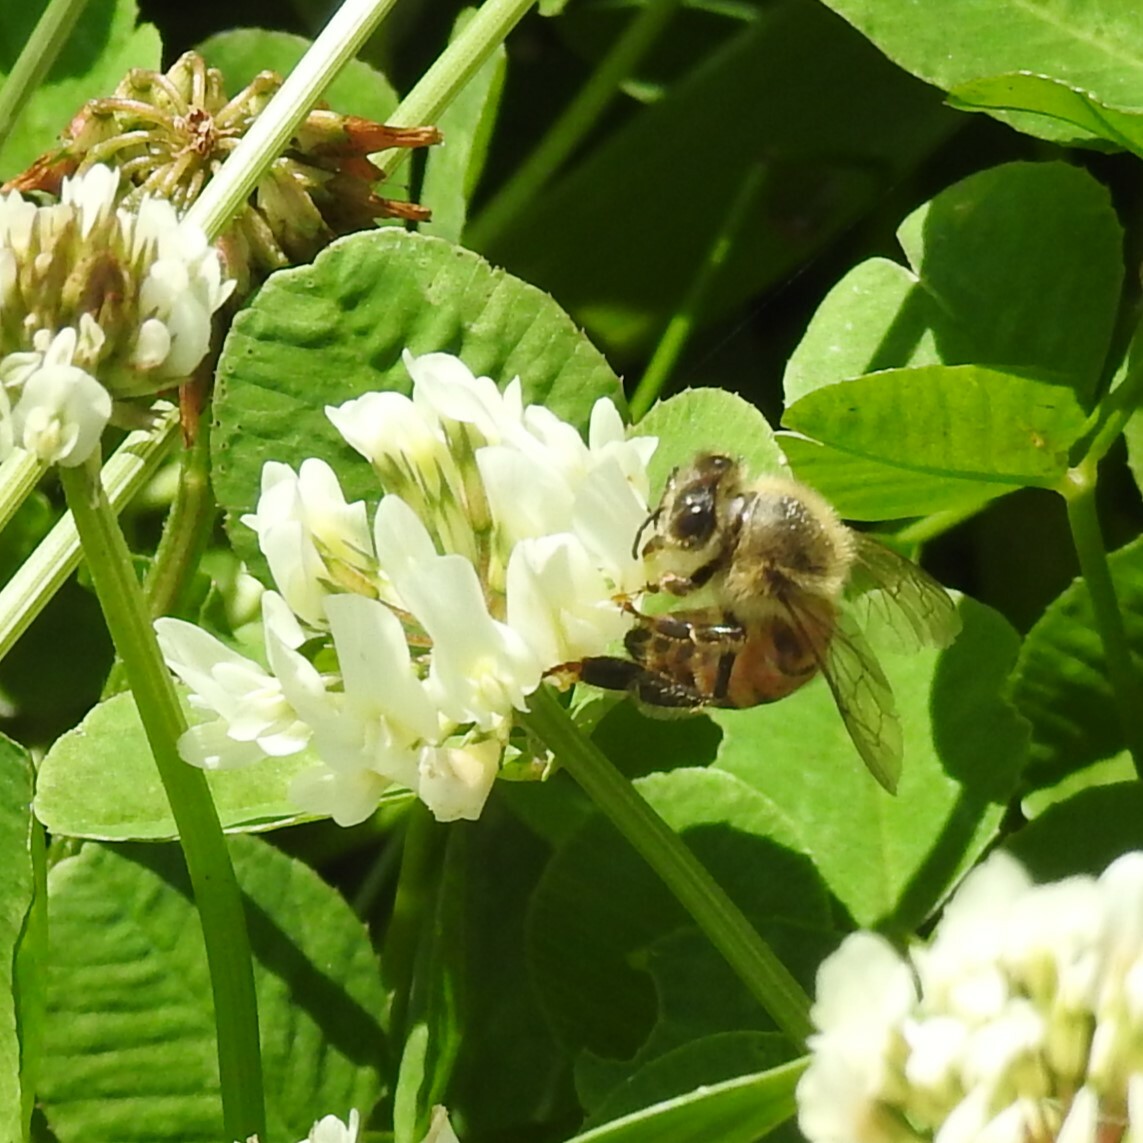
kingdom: Animalia
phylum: Arthropoda
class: Insecta
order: Hymenoptera
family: Apidae
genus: Apis
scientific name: Apis mellifera
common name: Honey bee
